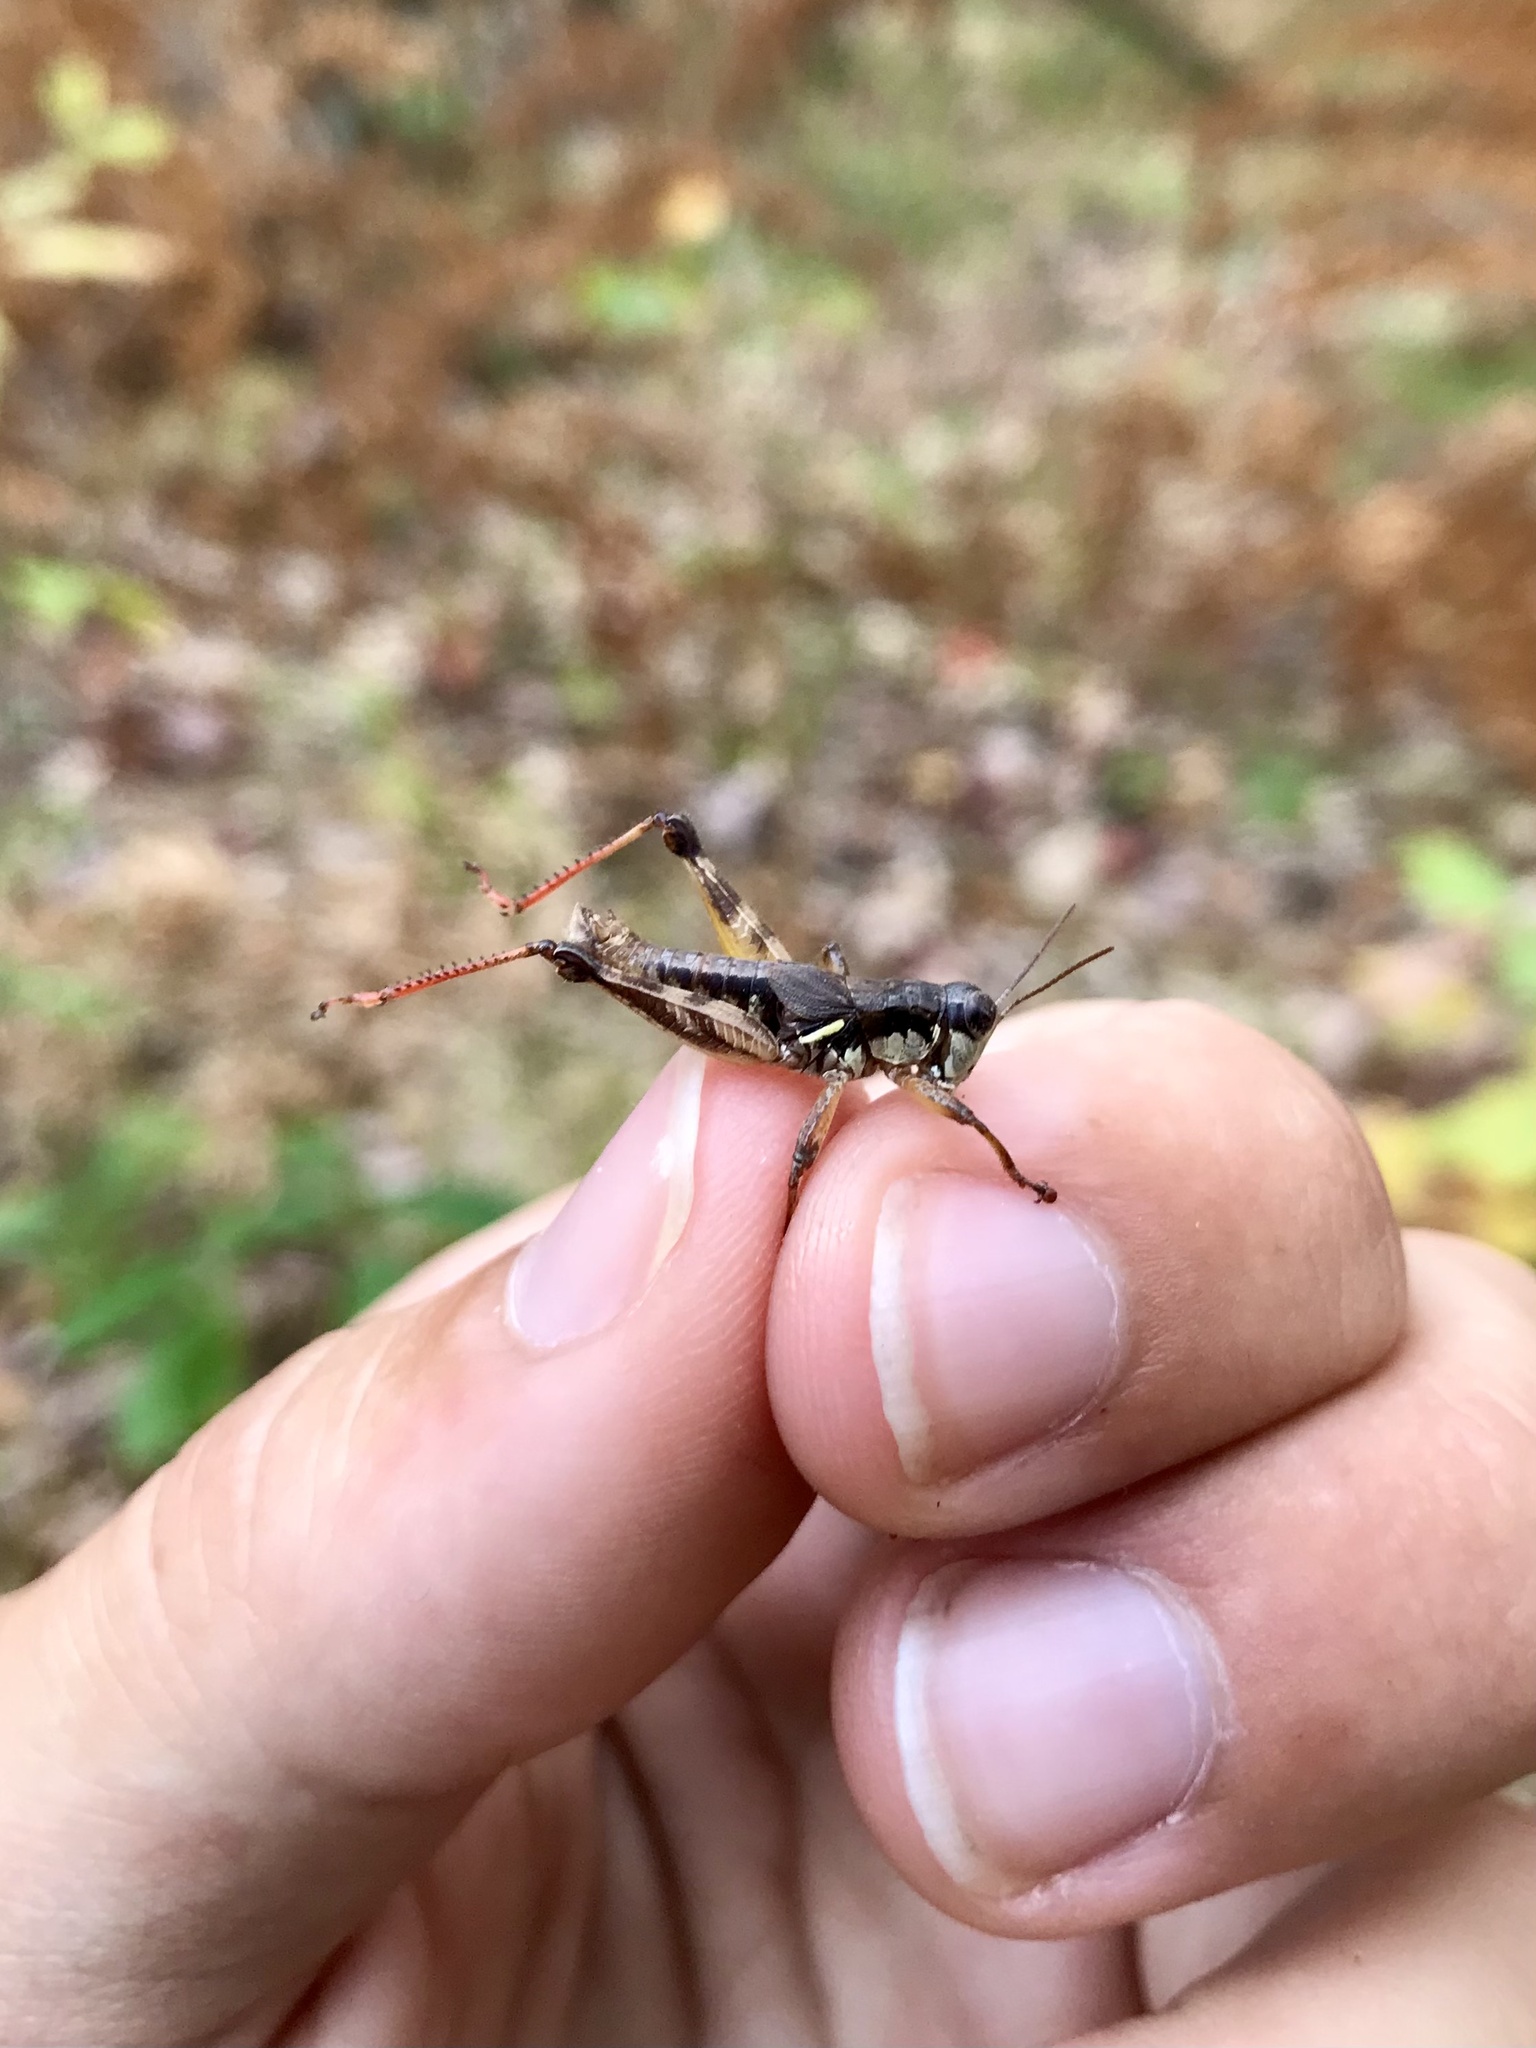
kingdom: Animalia
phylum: Arthropoda
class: Insecta
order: Orthoptera
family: Acrididae
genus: Melanoplus
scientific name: Melanoplus islandicus
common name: Island locust
